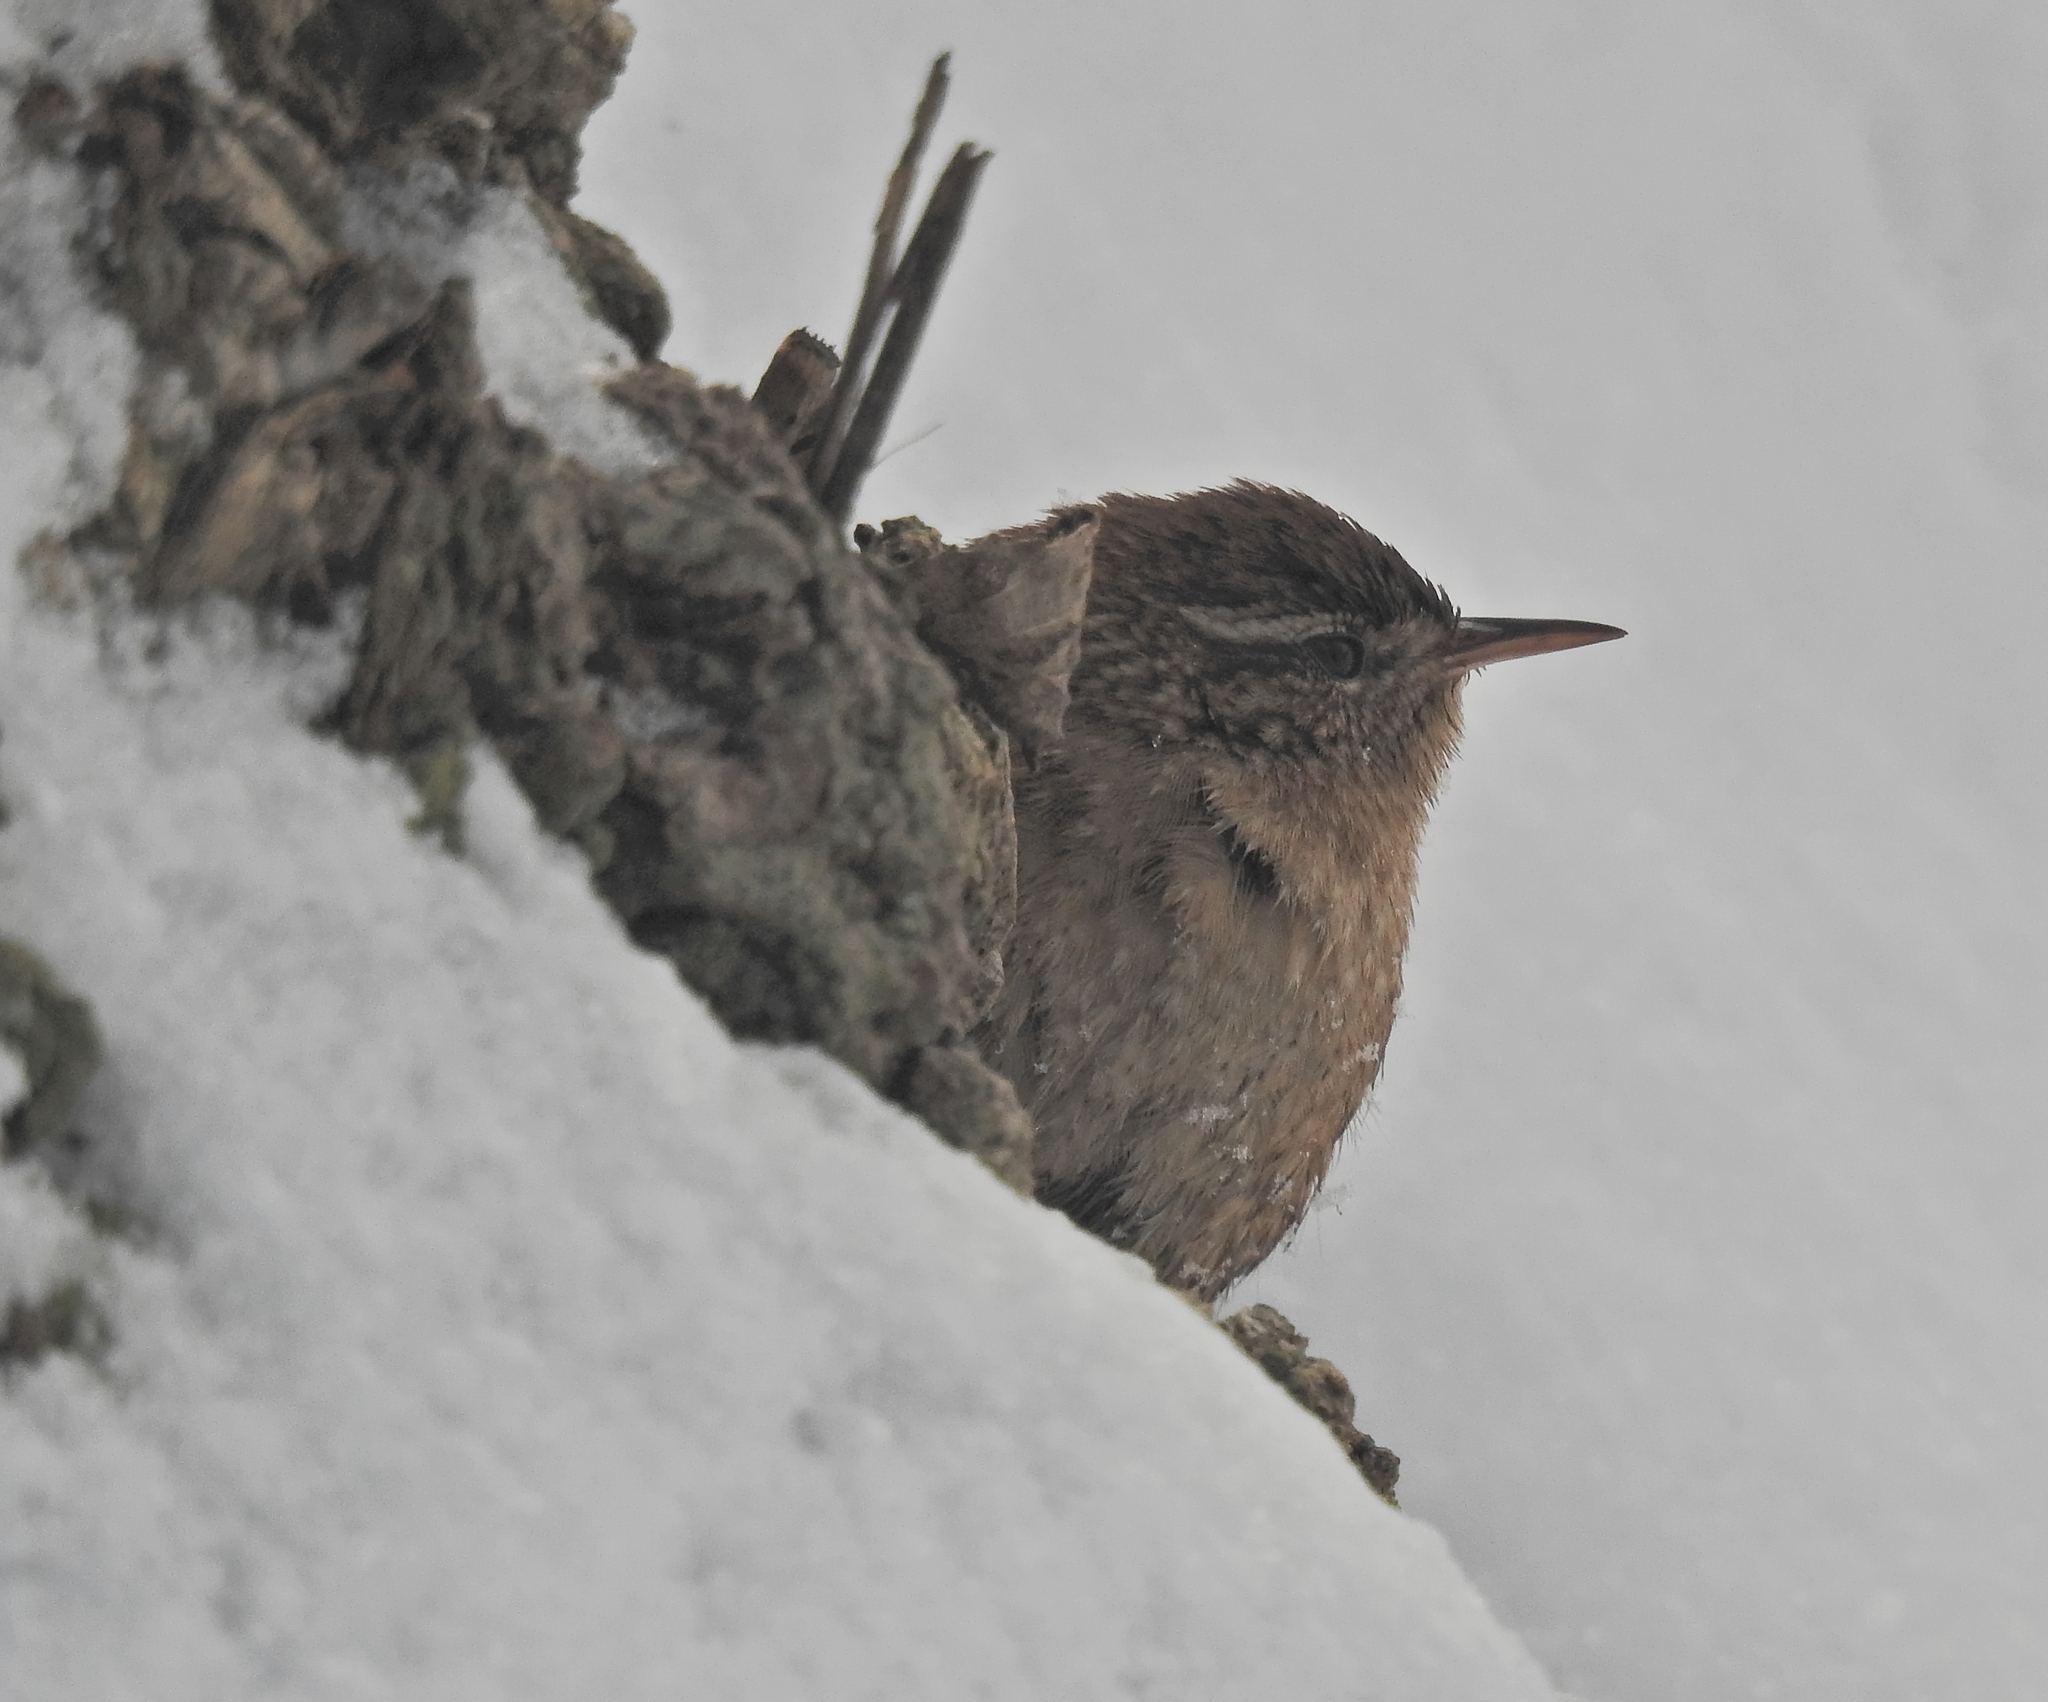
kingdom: Animalia
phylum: Chordata
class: Aves
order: Passeriformes
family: Troglodytidae
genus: Troglodytes
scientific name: Troglodytes troglodytes
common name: Eurasian wren
